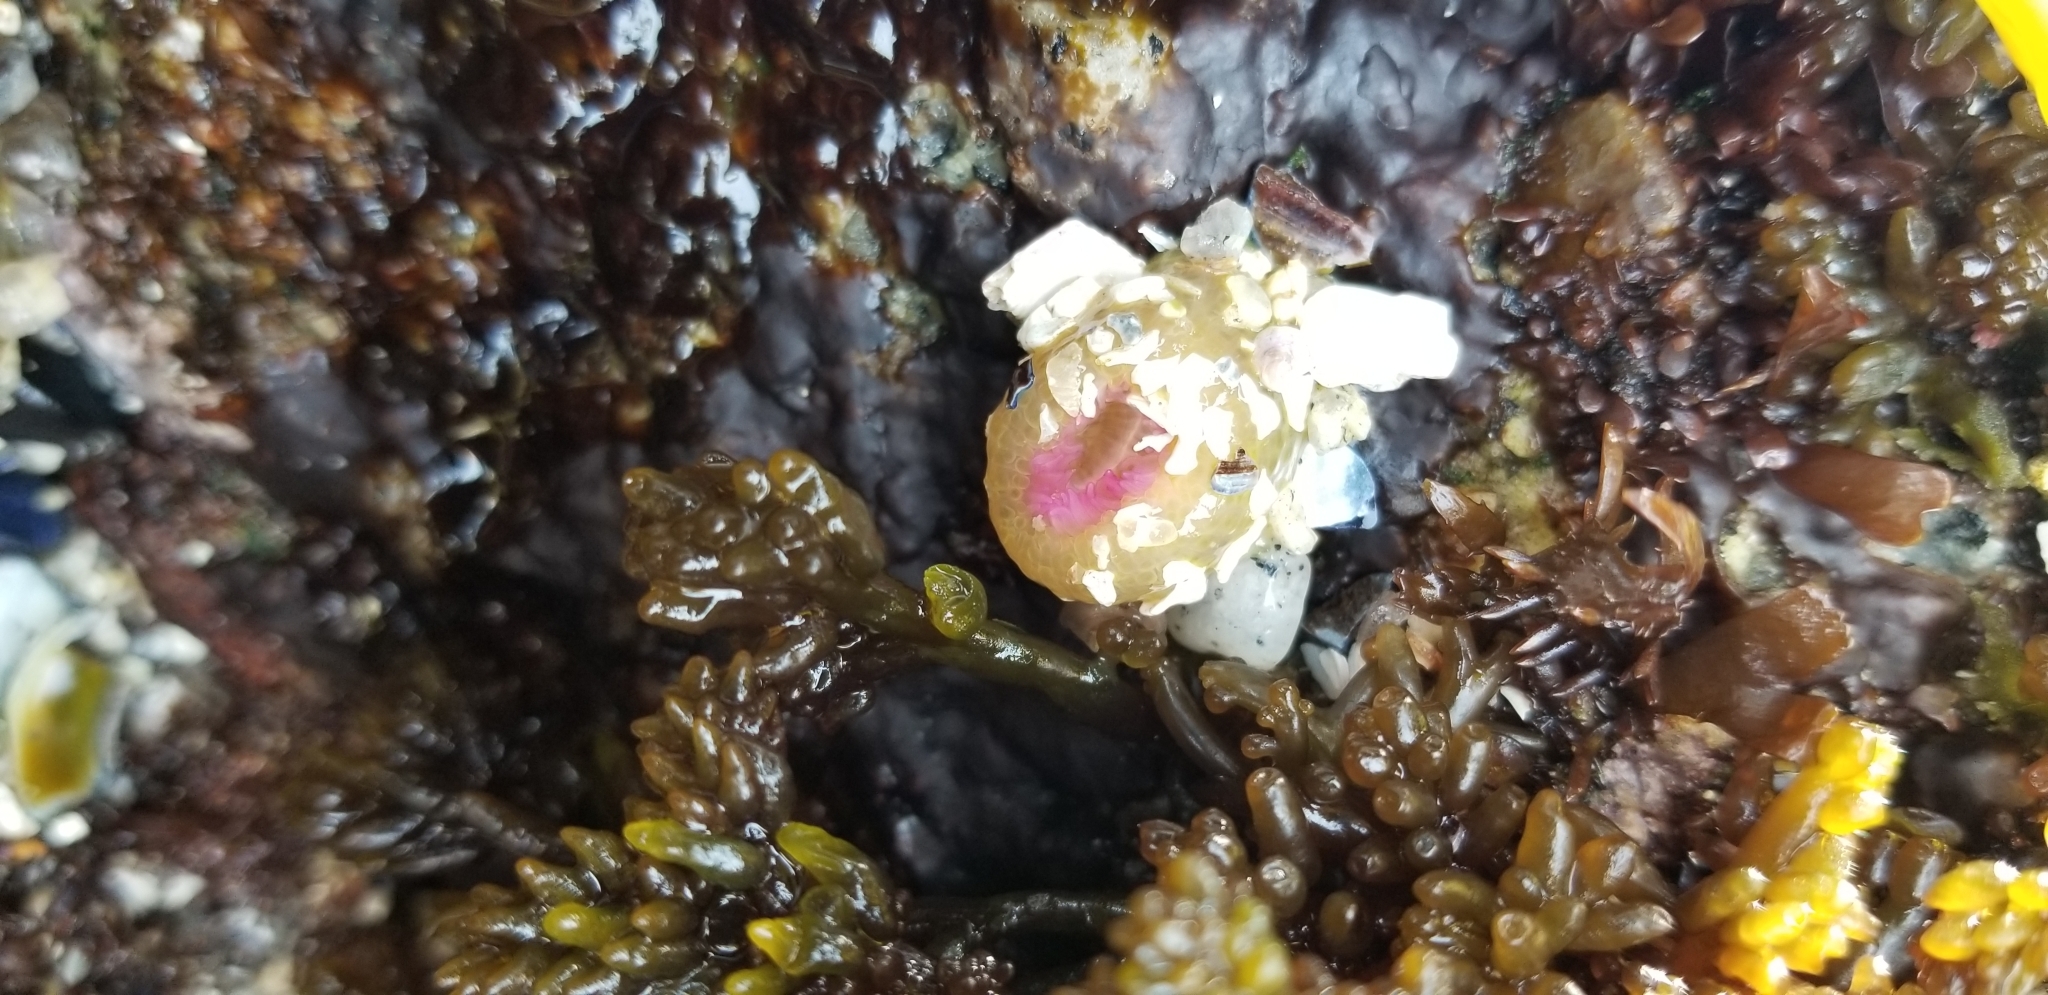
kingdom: Animalia
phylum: Cnidaria
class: Anthozoa
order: Actiniaria
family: Actiniidae
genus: Anthopleura
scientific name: Anthopleura elegantissima
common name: Clonal anemone
